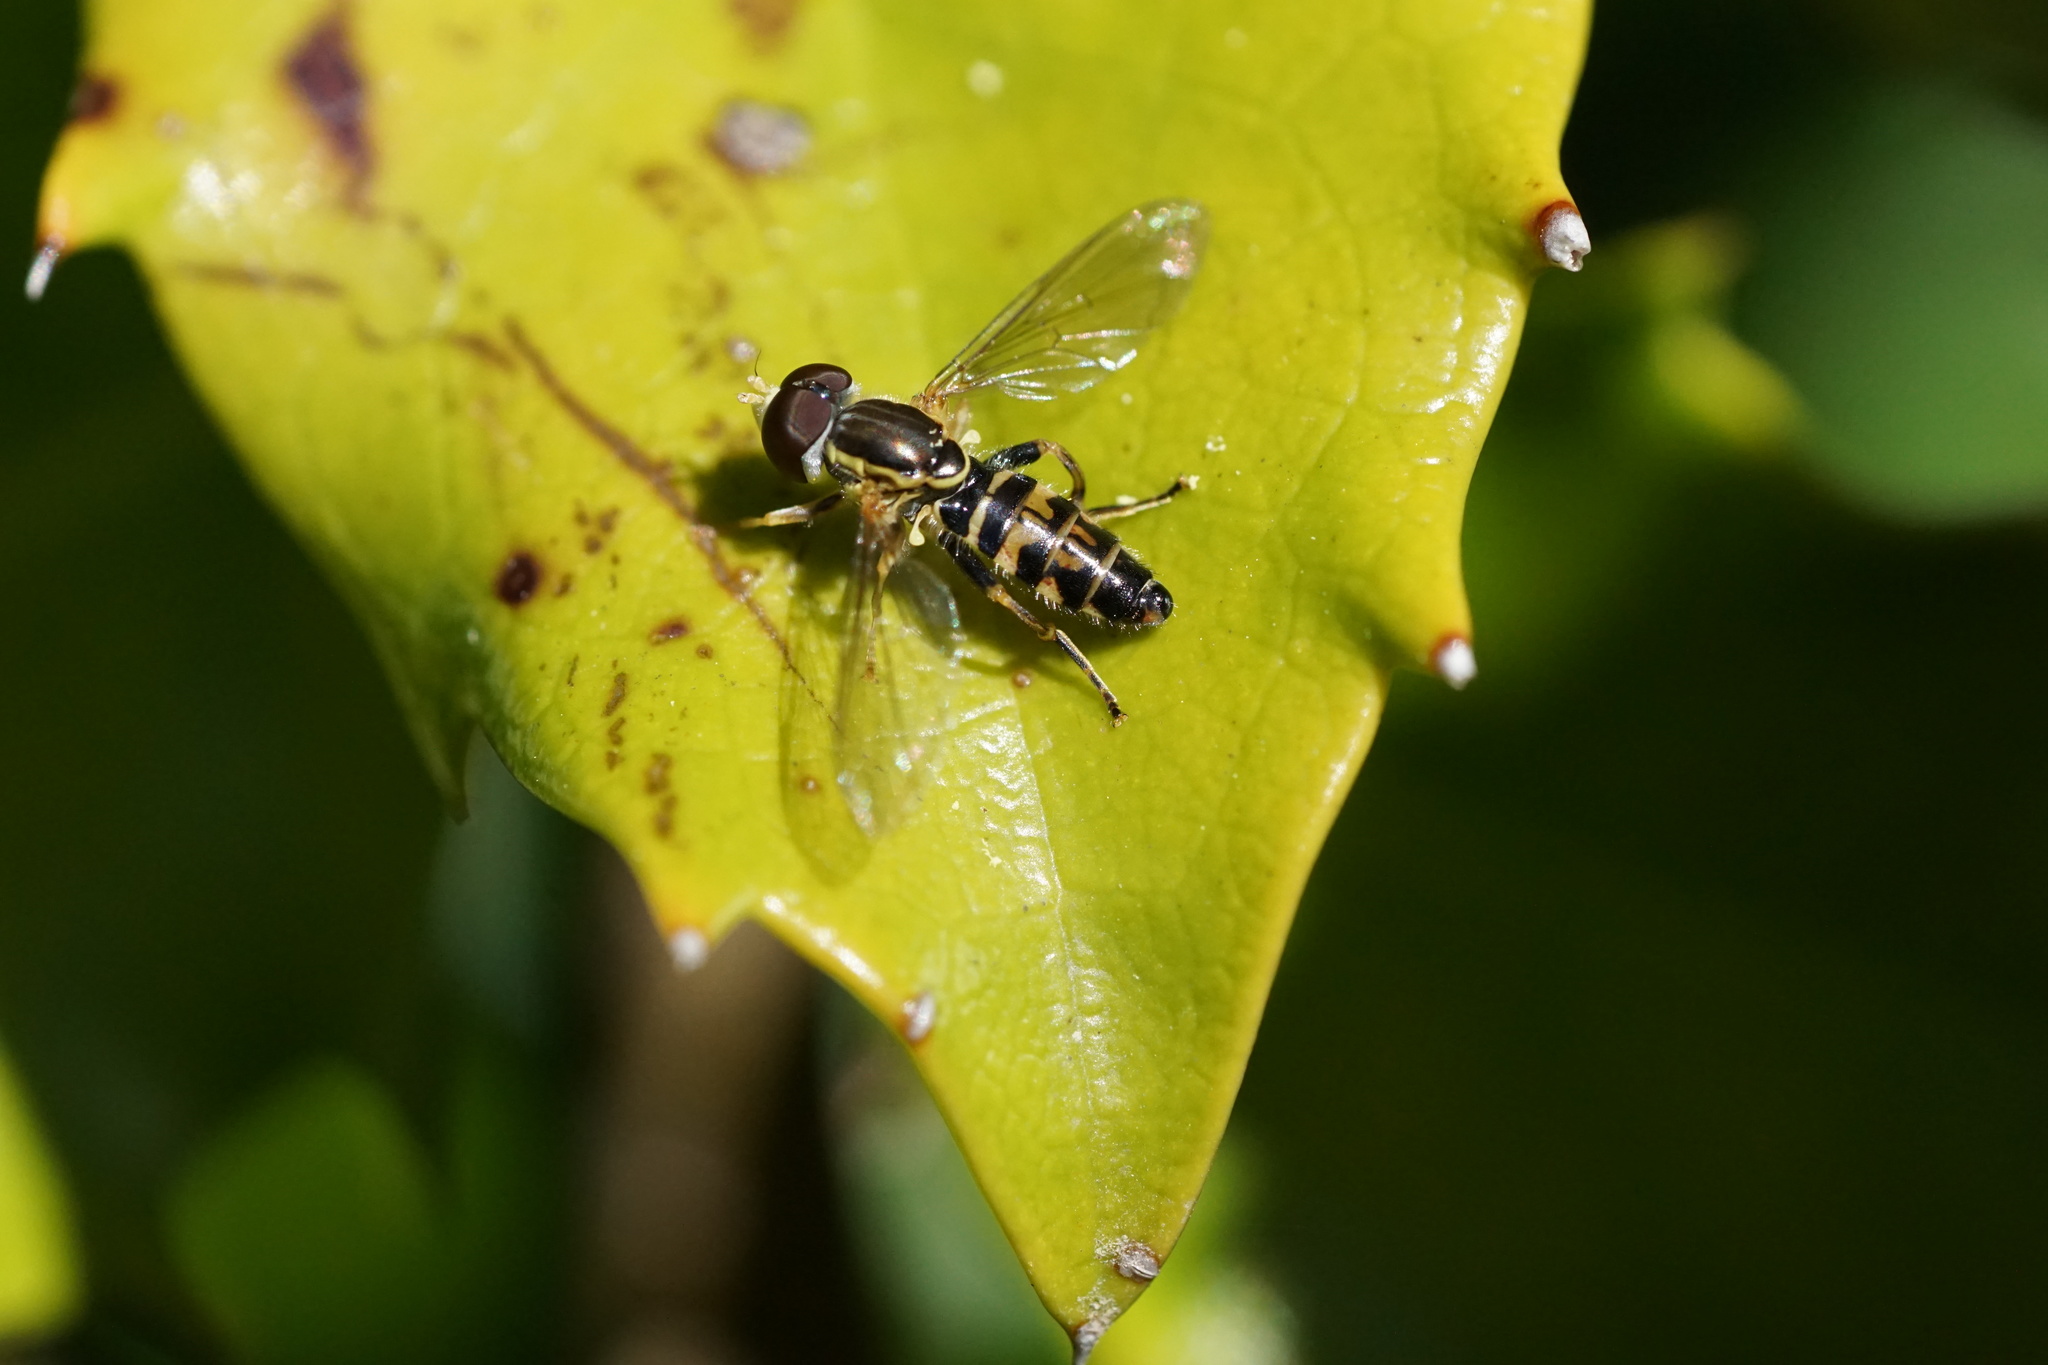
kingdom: Animalia
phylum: Arthropoda
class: Insecta
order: Diptera
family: Syrphidae
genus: Toxomerus
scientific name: Toxomerus geminatus
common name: Eastern calligrapher
